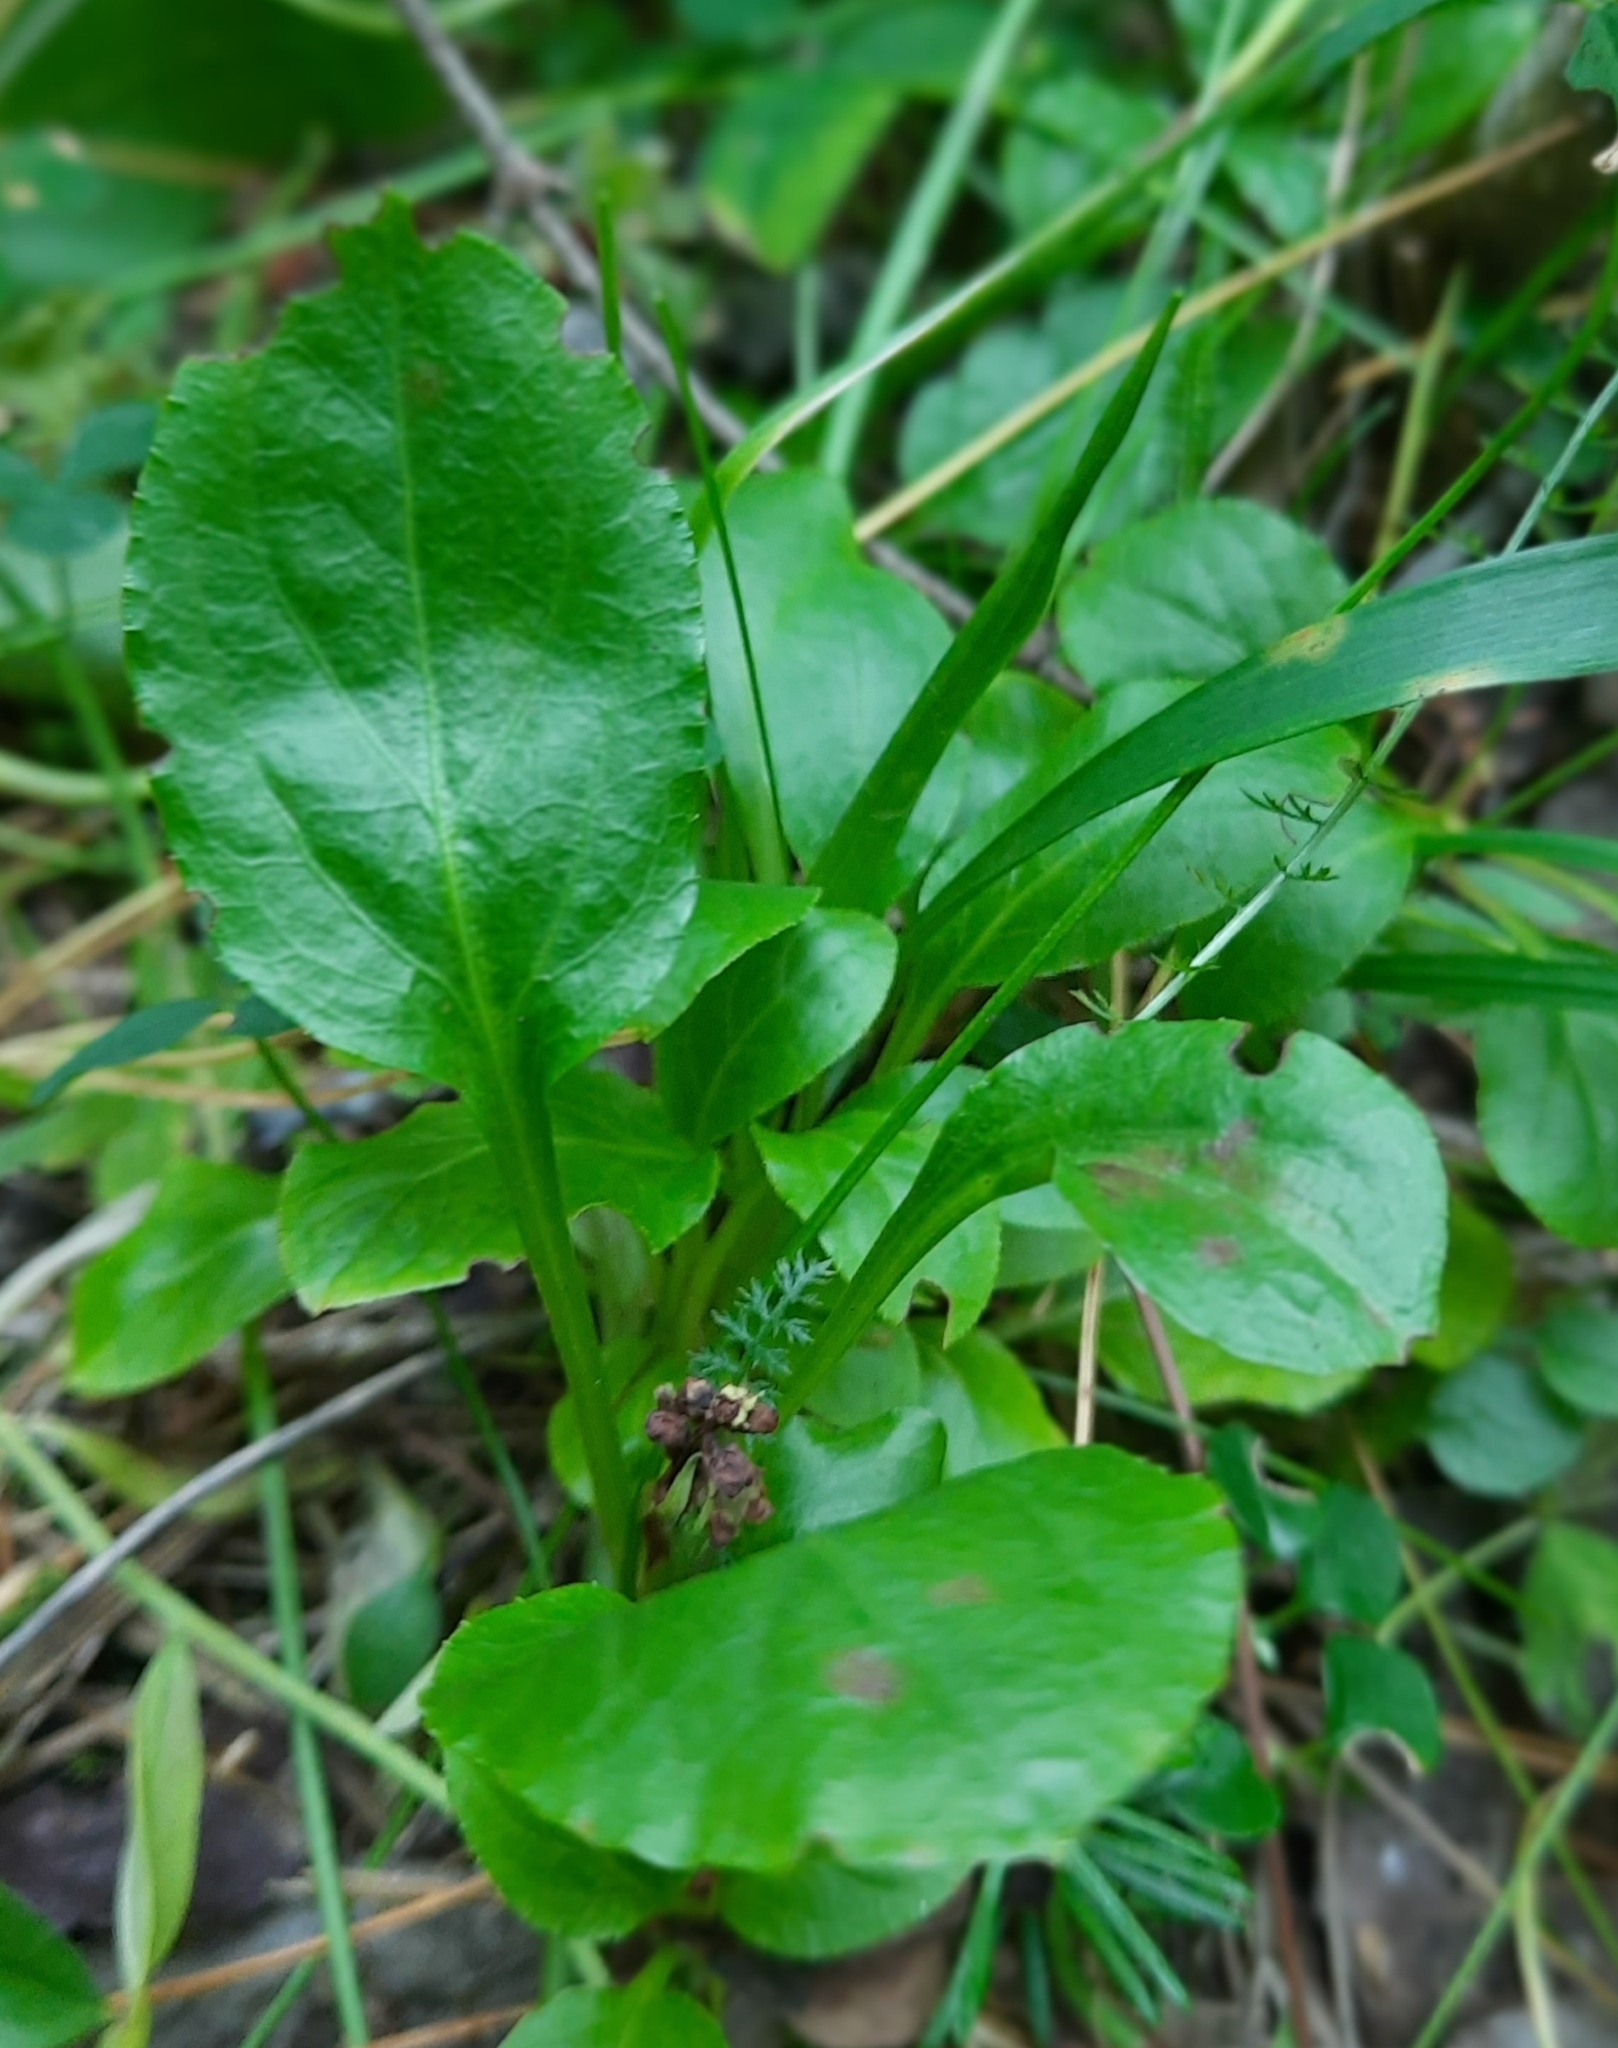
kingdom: Plantae
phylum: Tracheophyta
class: Magnoliopsida
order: Ericales
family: Ericaceae
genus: Pyrola
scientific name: Pyrola minor
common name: Common wintergreen
